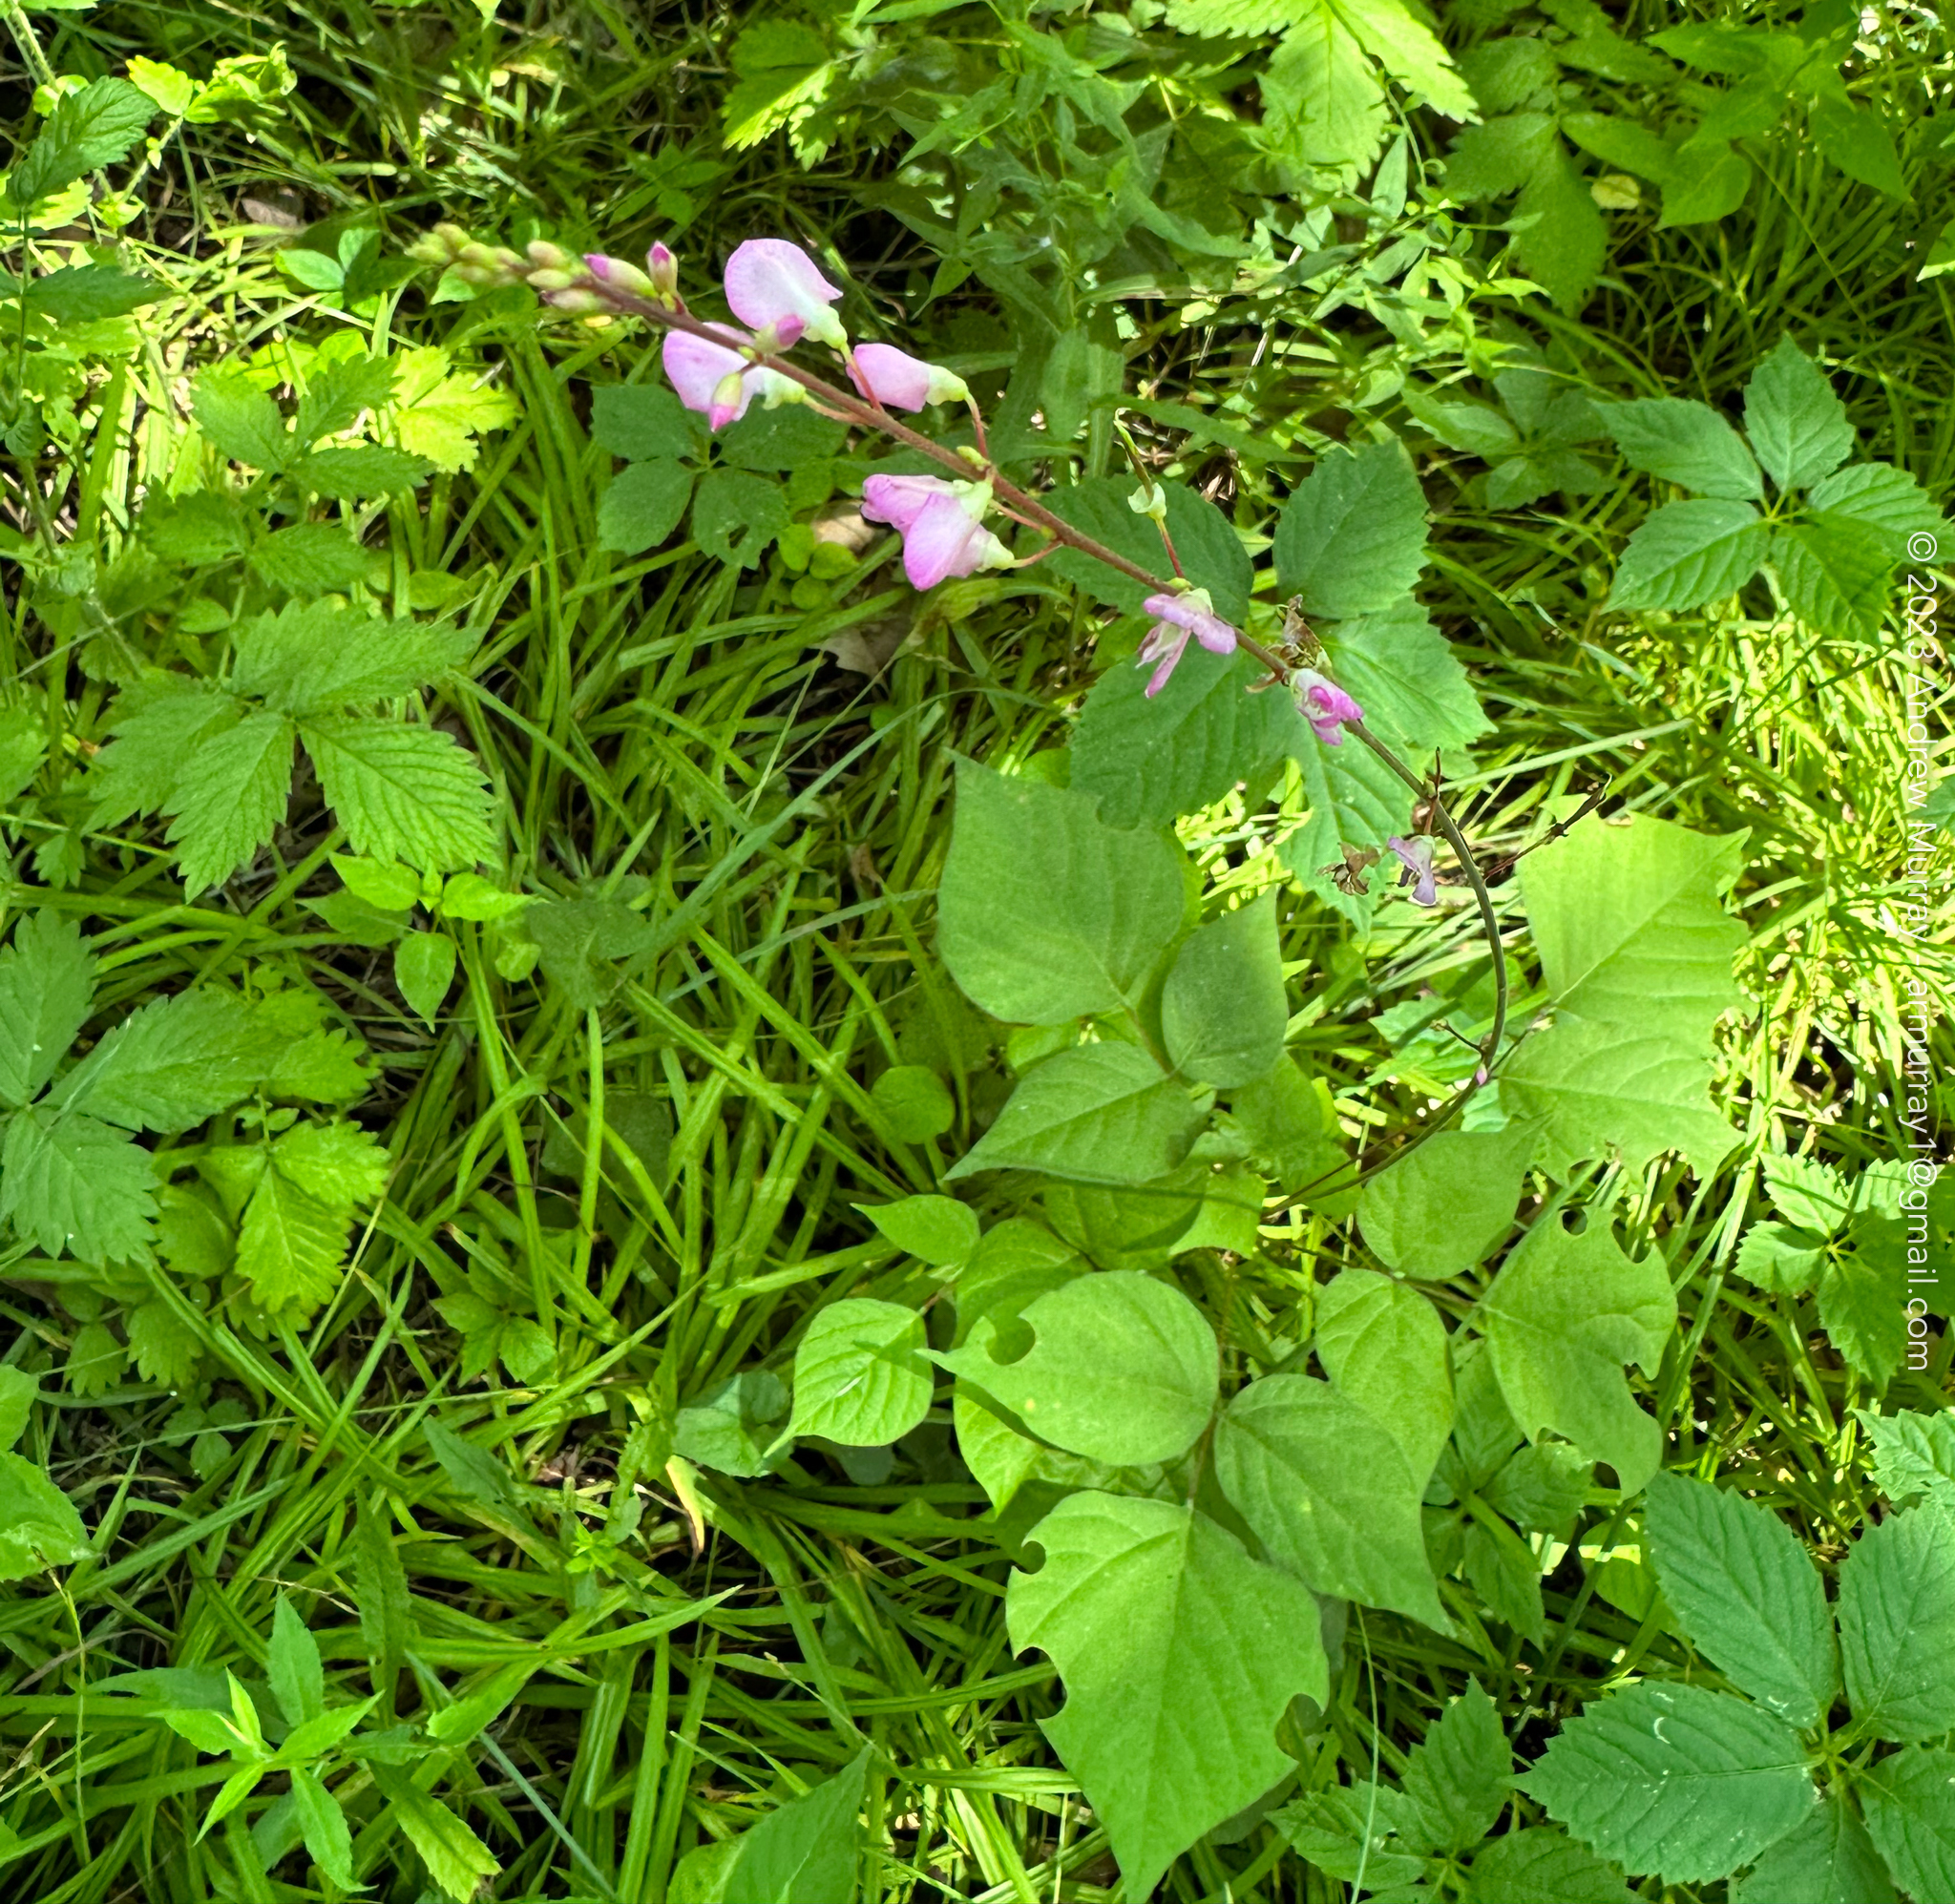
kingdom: Plantae
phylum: Tracheophyta
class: Magnoliopsida
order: Fabales
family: Fabaceae
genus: Hylodesmum
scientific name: Hylodesmum glutinosum
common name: Clustered-leaved tick-trefoil
